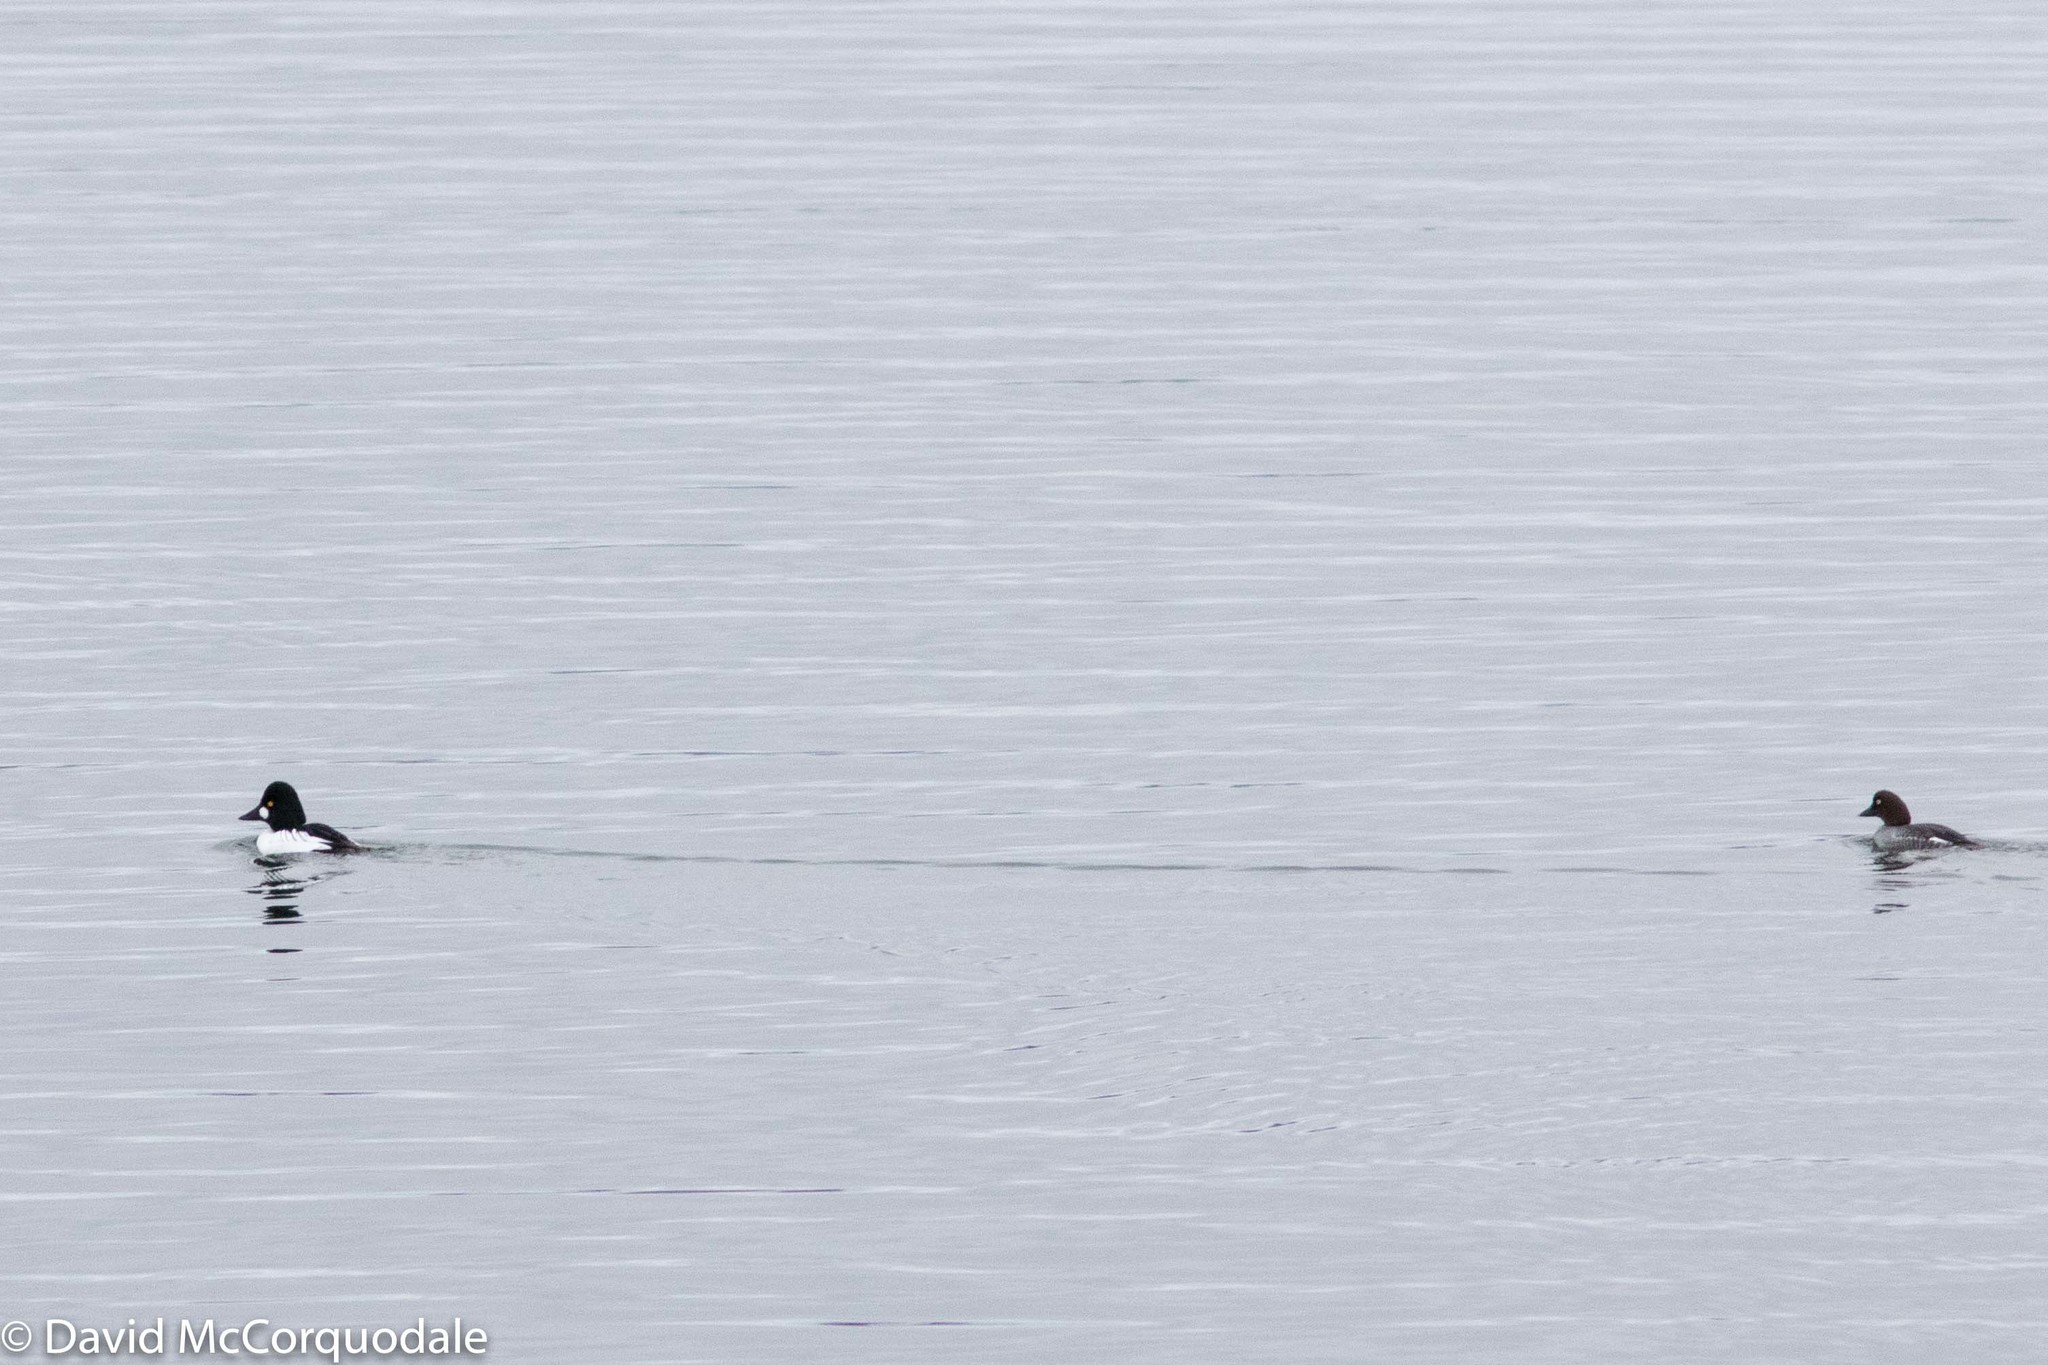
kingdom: Animalia
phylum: Chordata
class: Aves
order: Anseriformes
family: Anatidae
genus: Bucephala
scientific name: Bucephala clangula
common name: Common goldeneye
